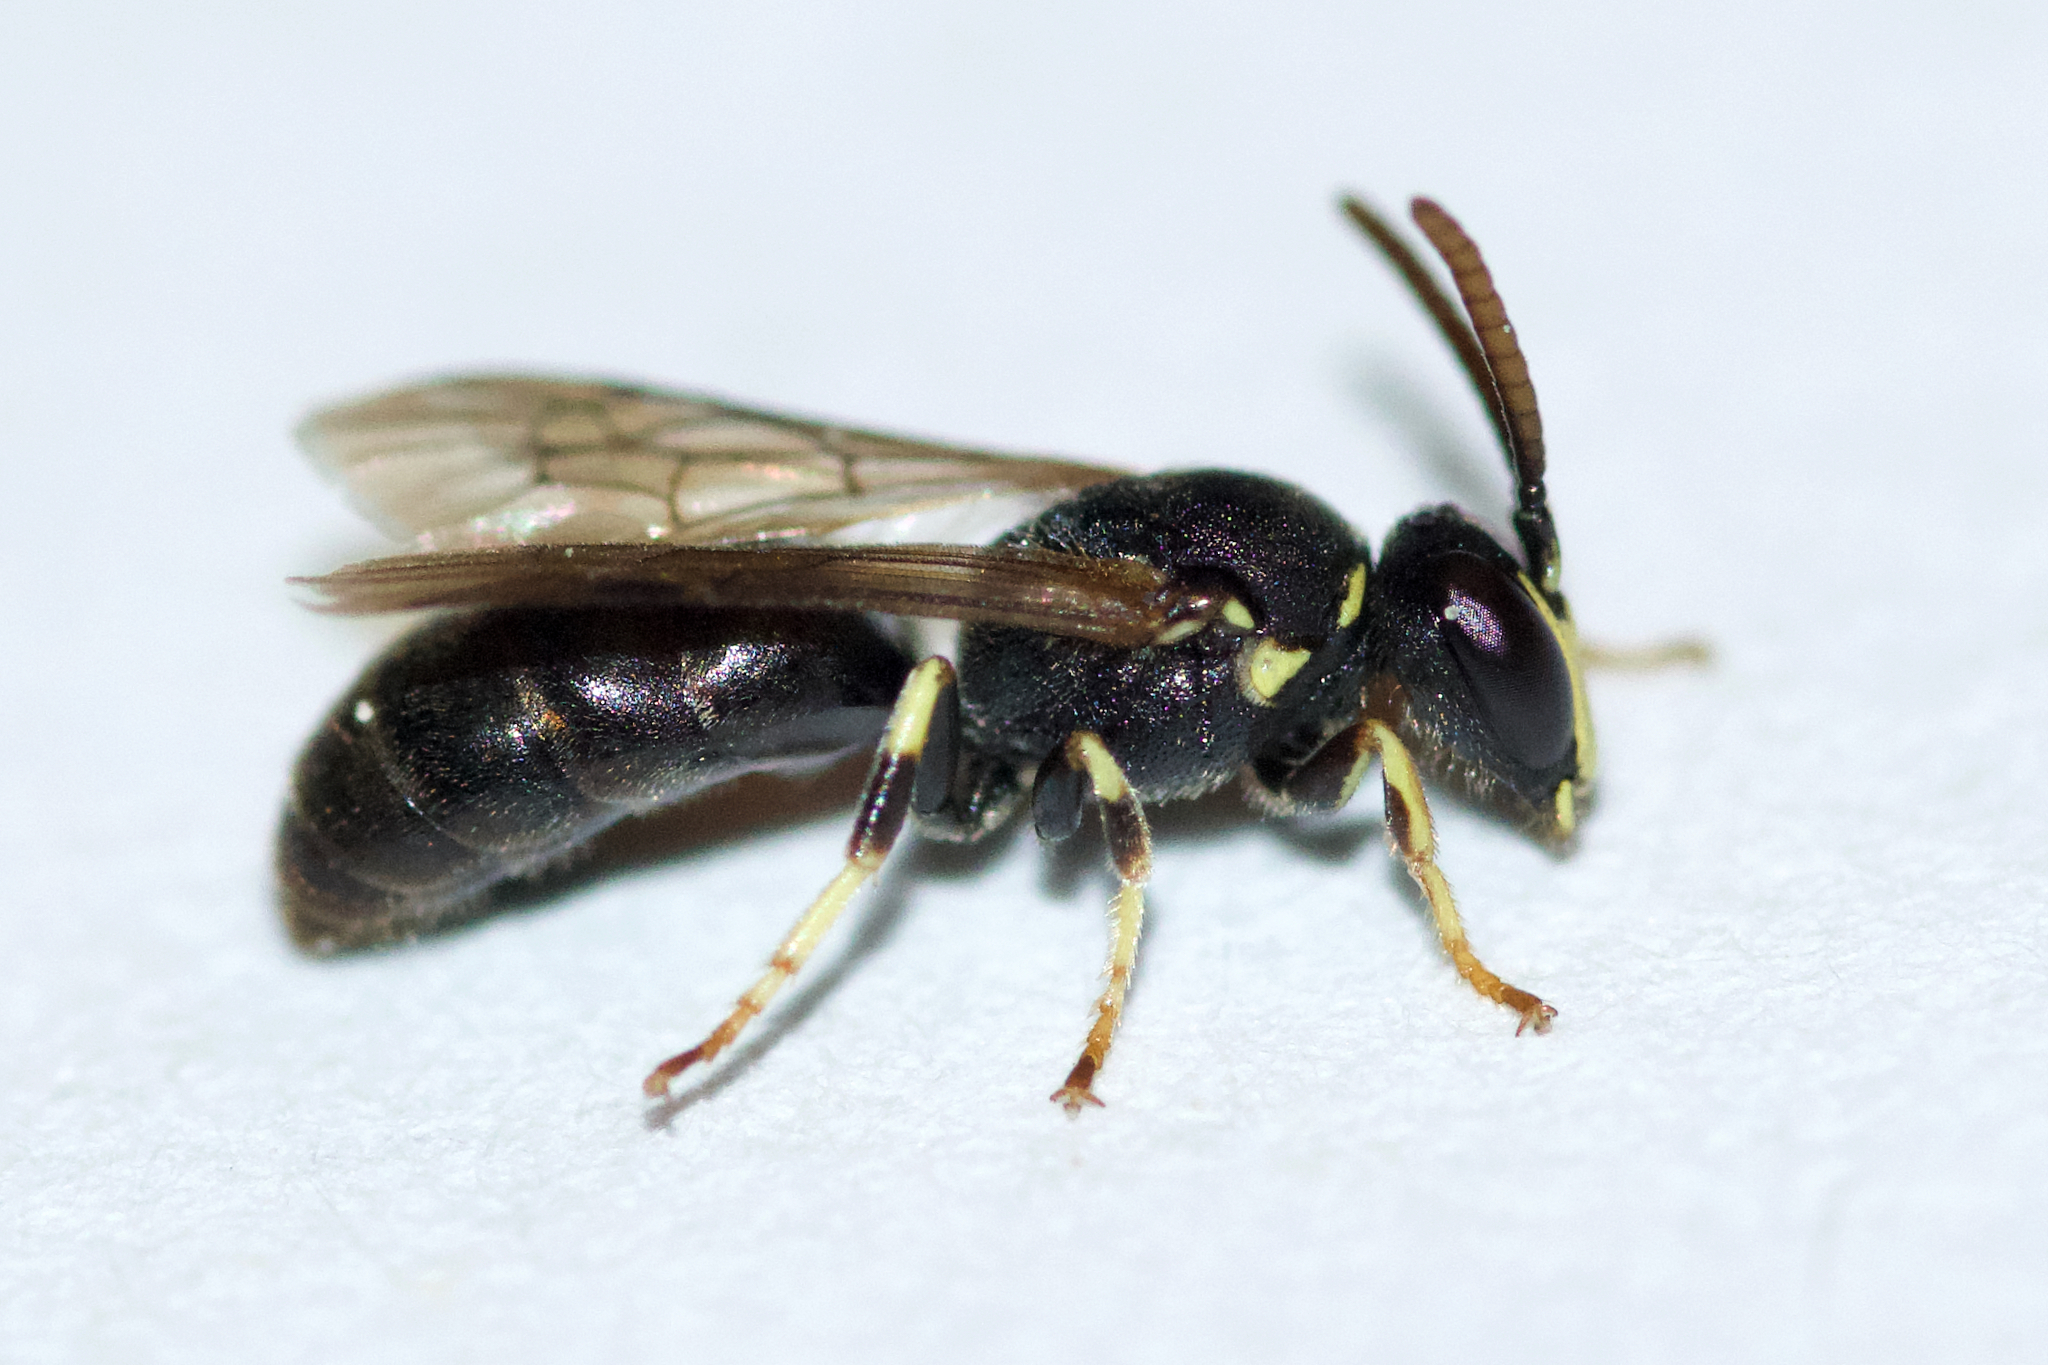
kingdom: Animalia
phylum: Arthropoda
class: Insecta
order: Hymenoptera
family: Colletidae
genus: Hylaeus
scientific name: Hylaeus affinis
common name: Eastern masked bee
